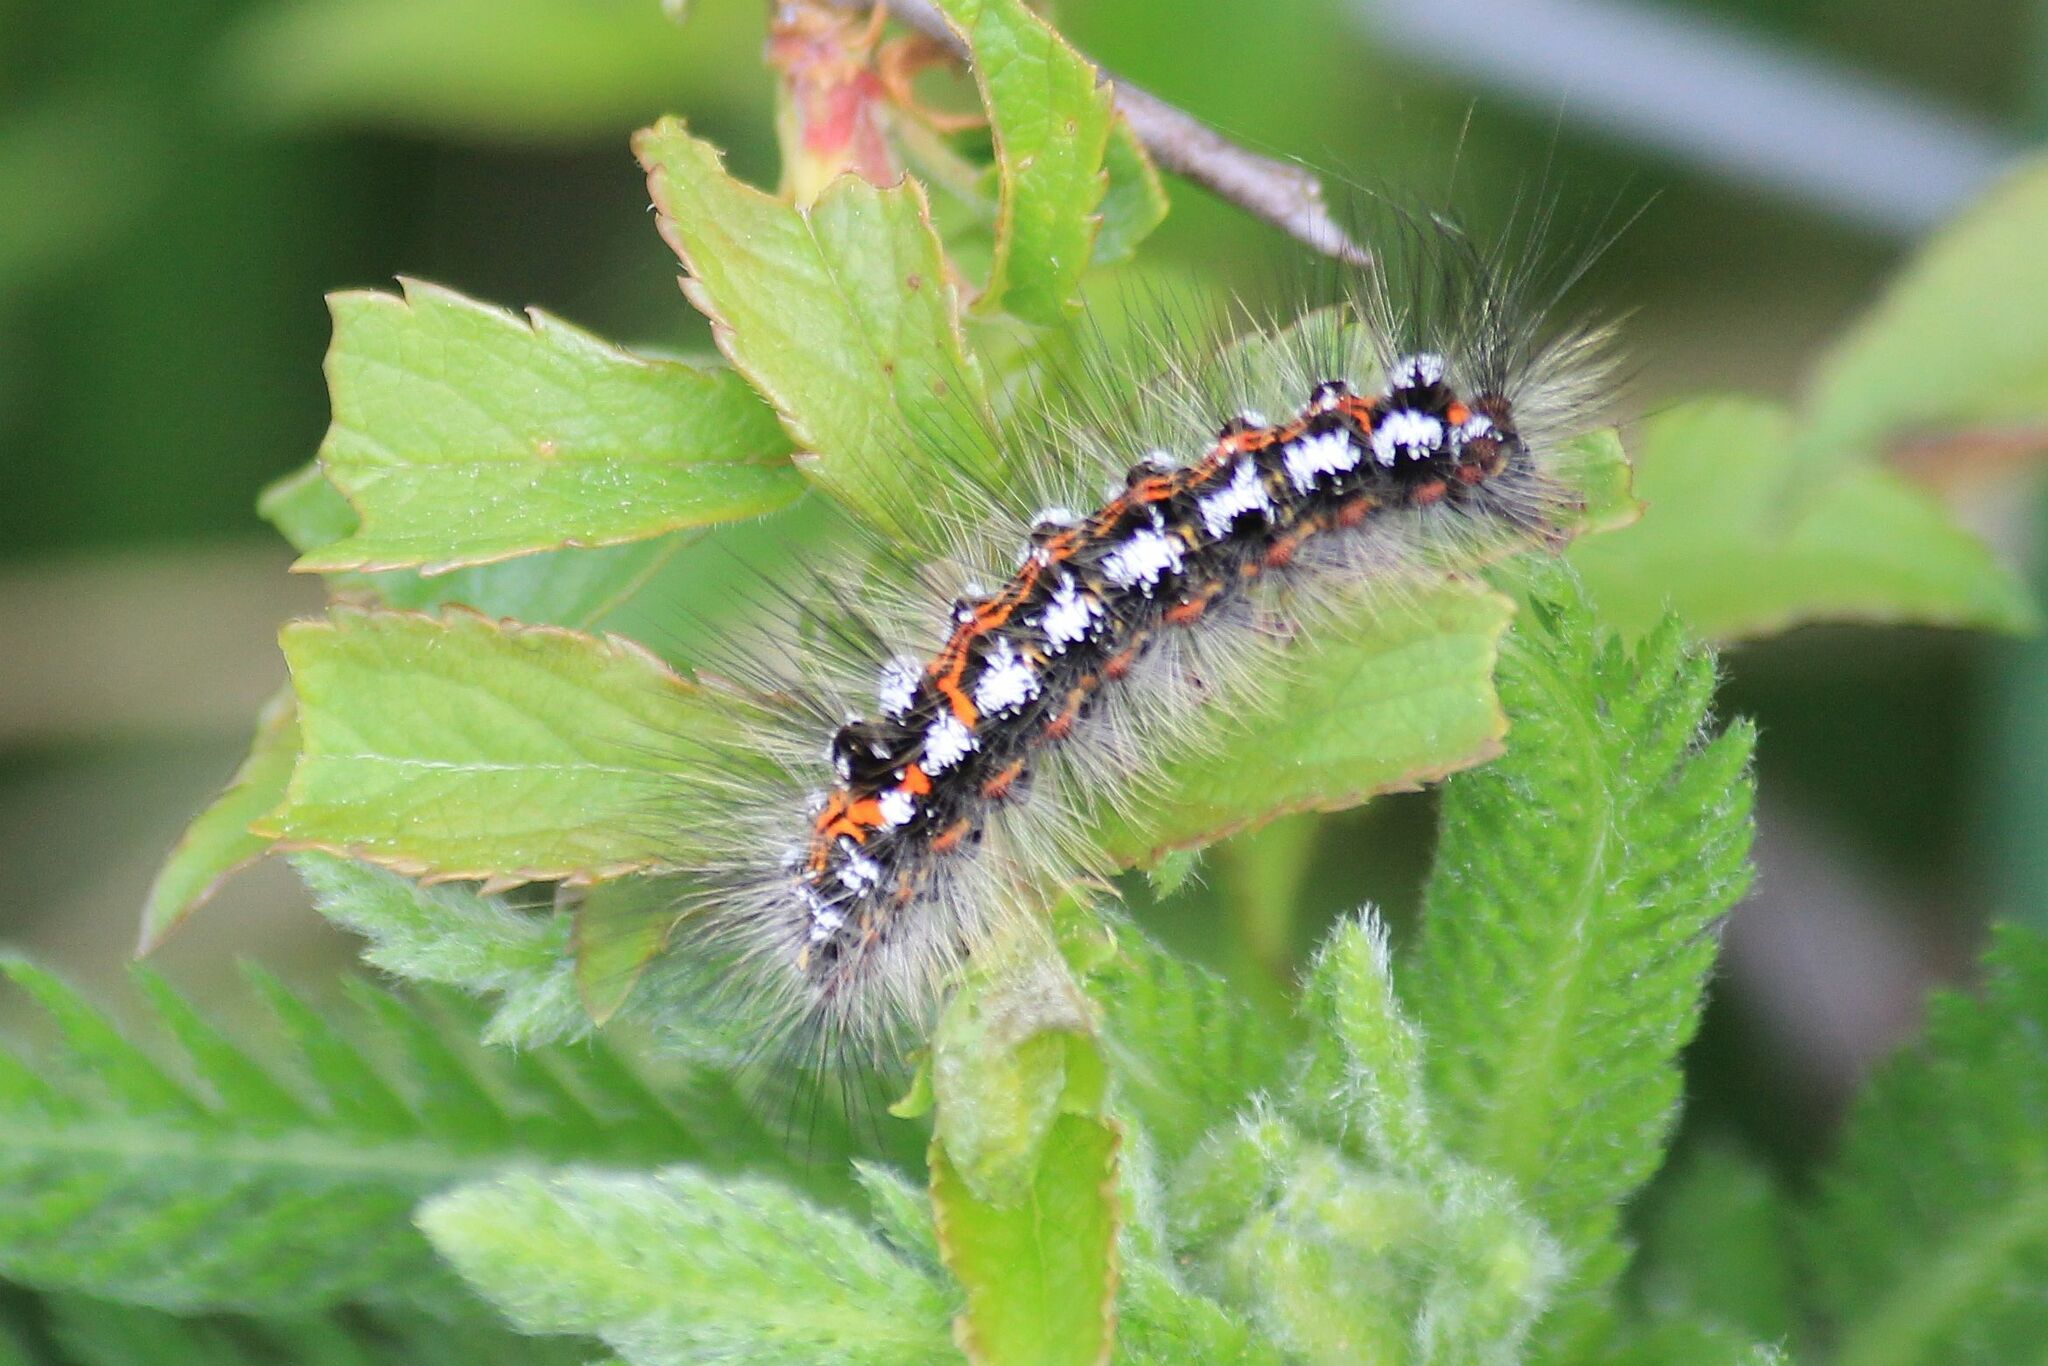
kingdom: Animalia
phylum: Arthropoda
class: Insecta
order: Lepidoptera
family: Erebidae
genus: Sphrageidus
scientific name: Sphrageidus similis
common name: Yellow-tail
